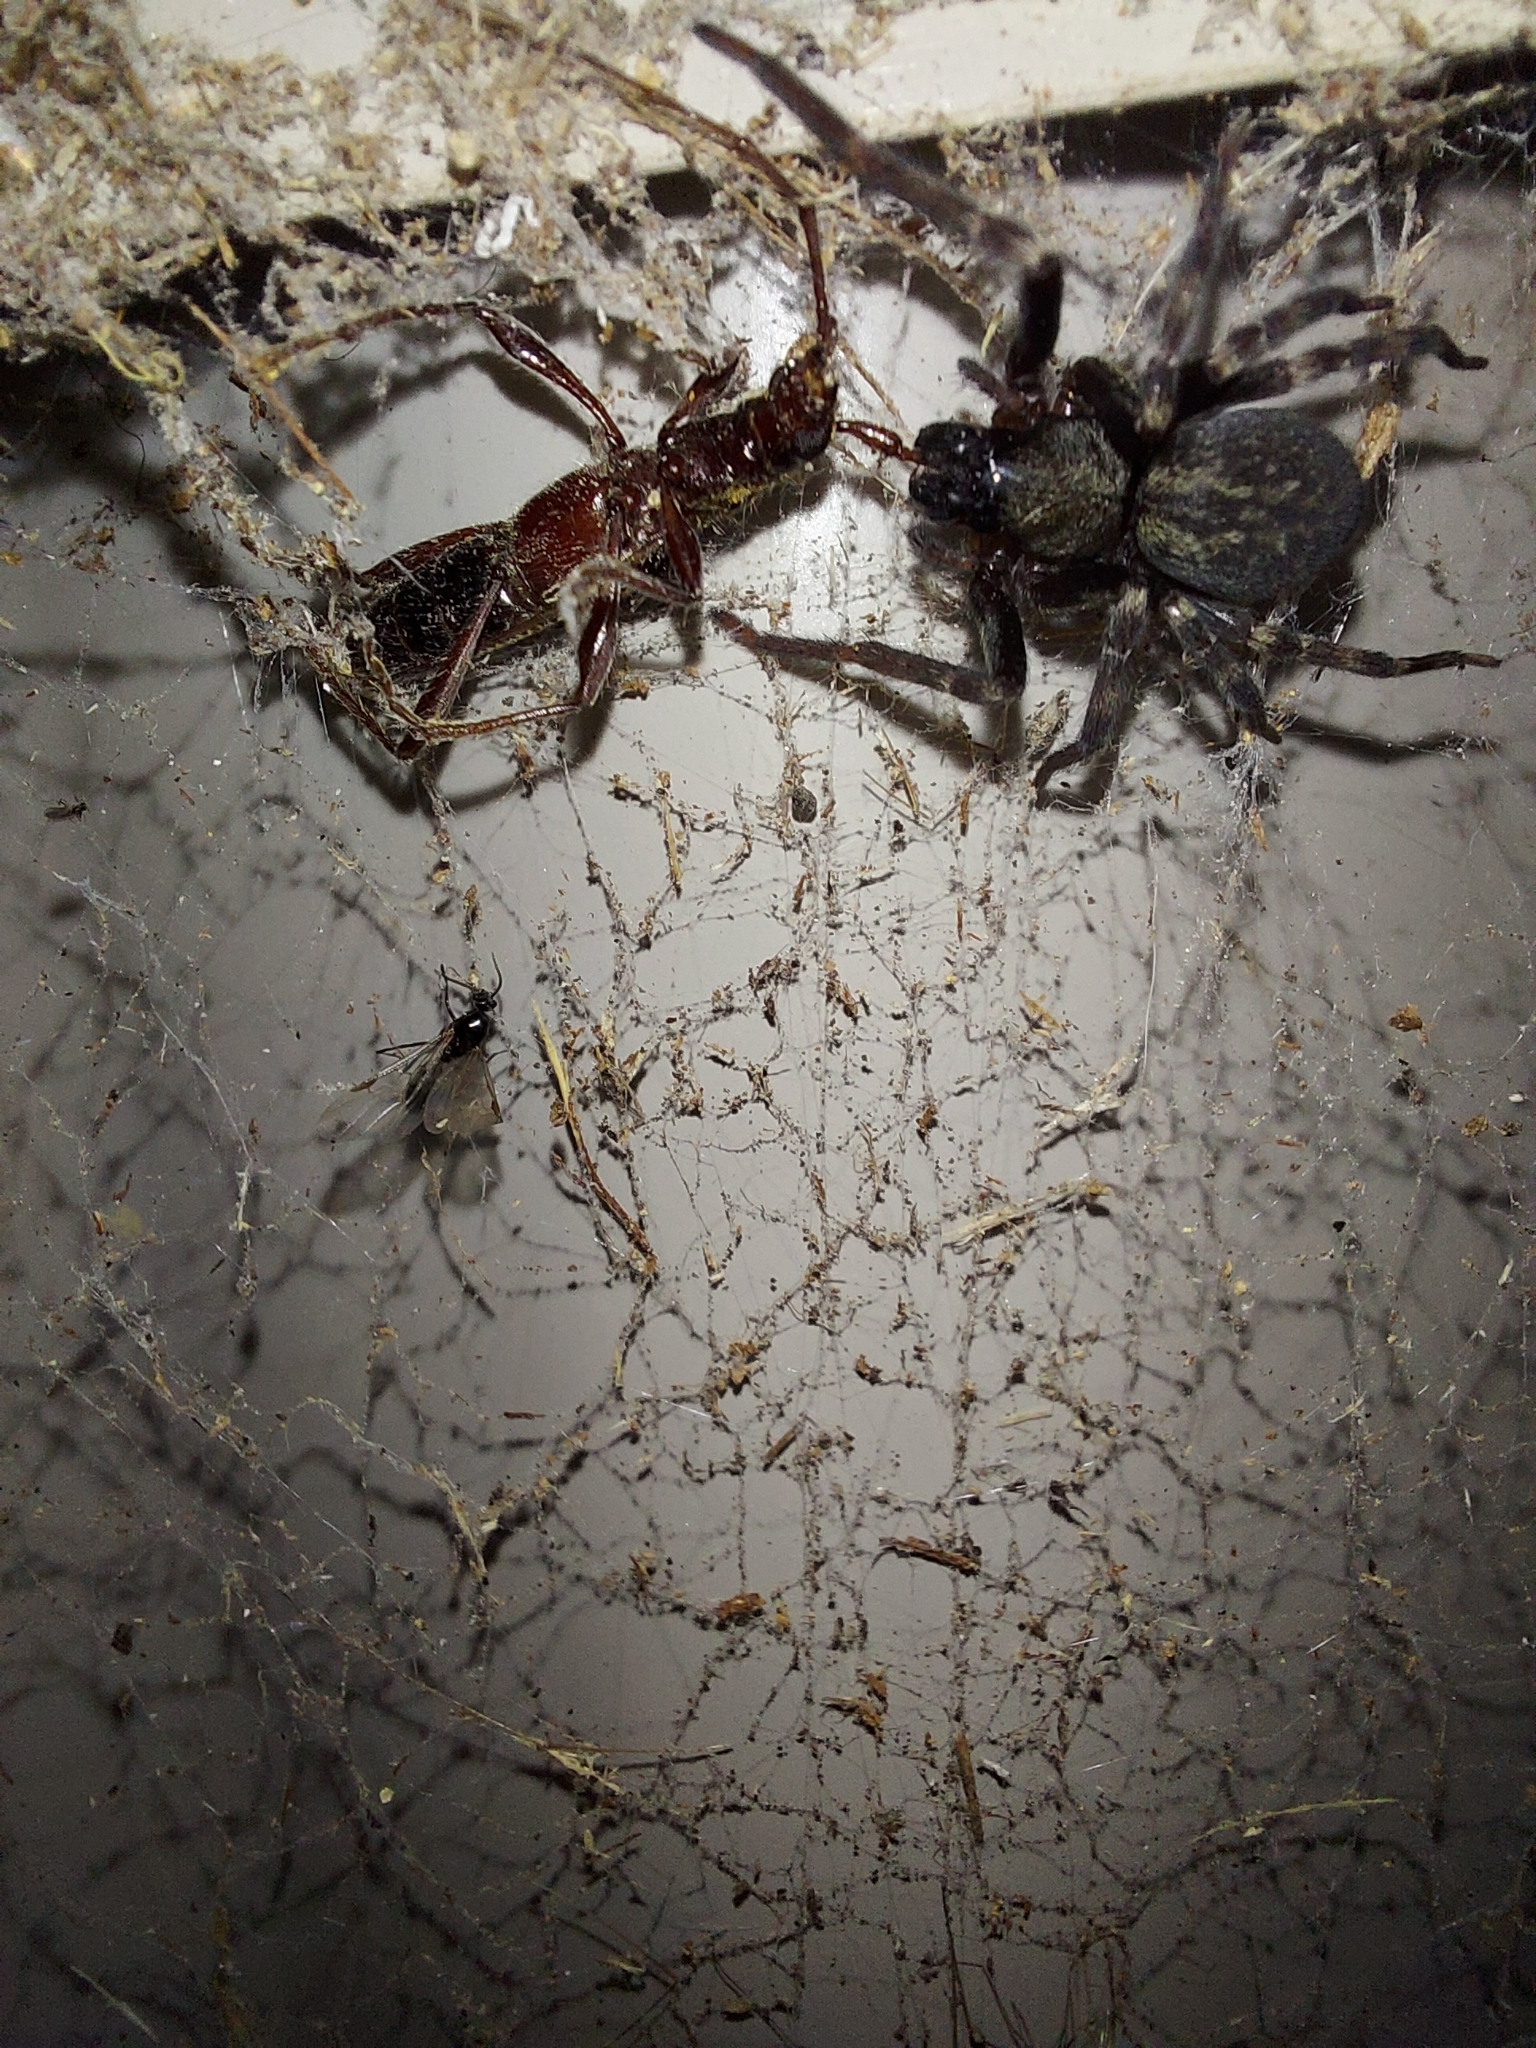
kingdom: Animalia
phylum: Arthropoda
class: Arachnida
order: Araneae
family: Desidae
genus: Badumna
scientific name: Badumna insignis
